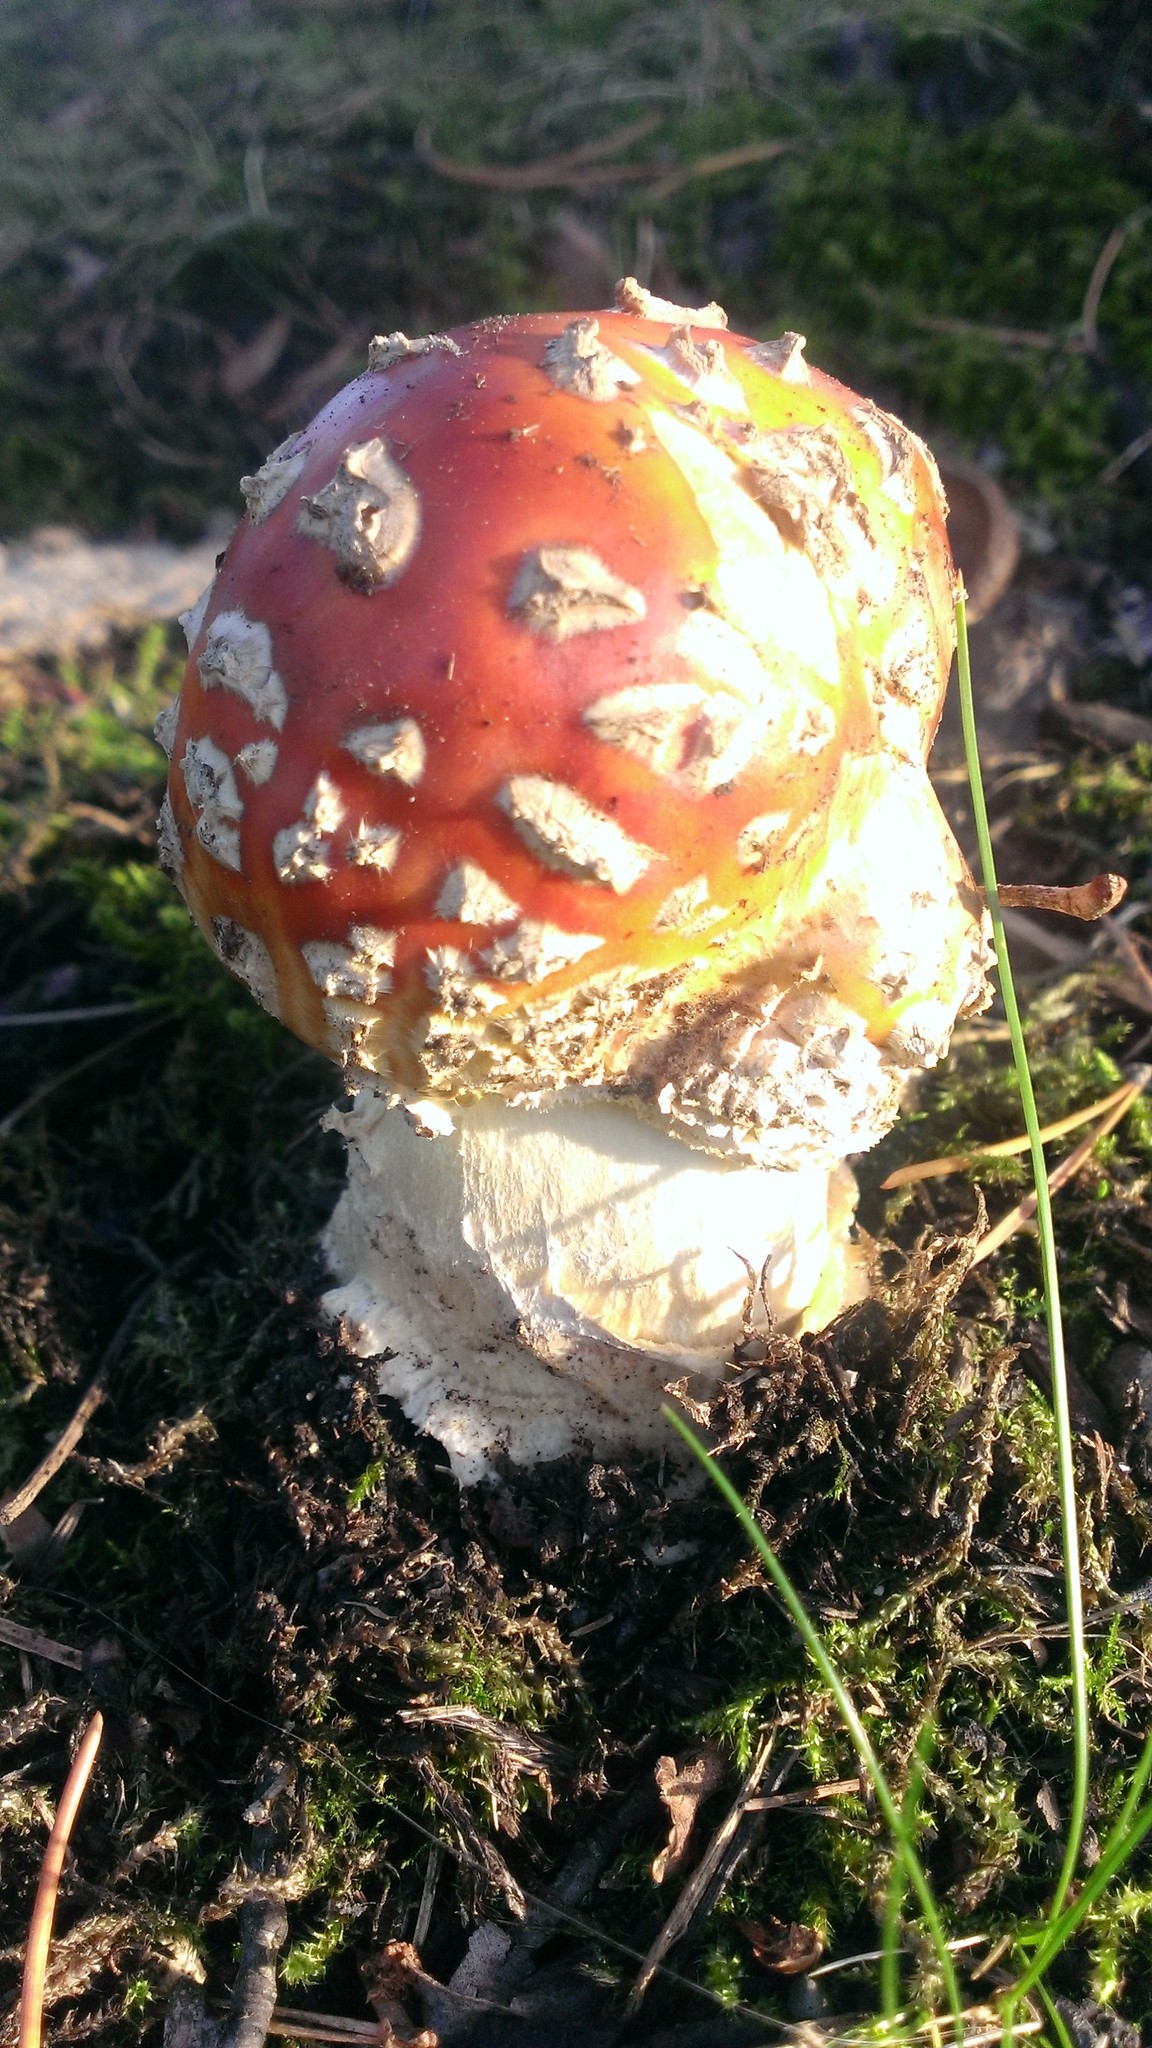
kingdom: Fungi
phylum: Basidiomycota
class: Agaricomycetes
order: Agaricales
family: Amanitaceae
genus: Amanita
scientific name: Amanita muscaria
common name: Fly agaric
